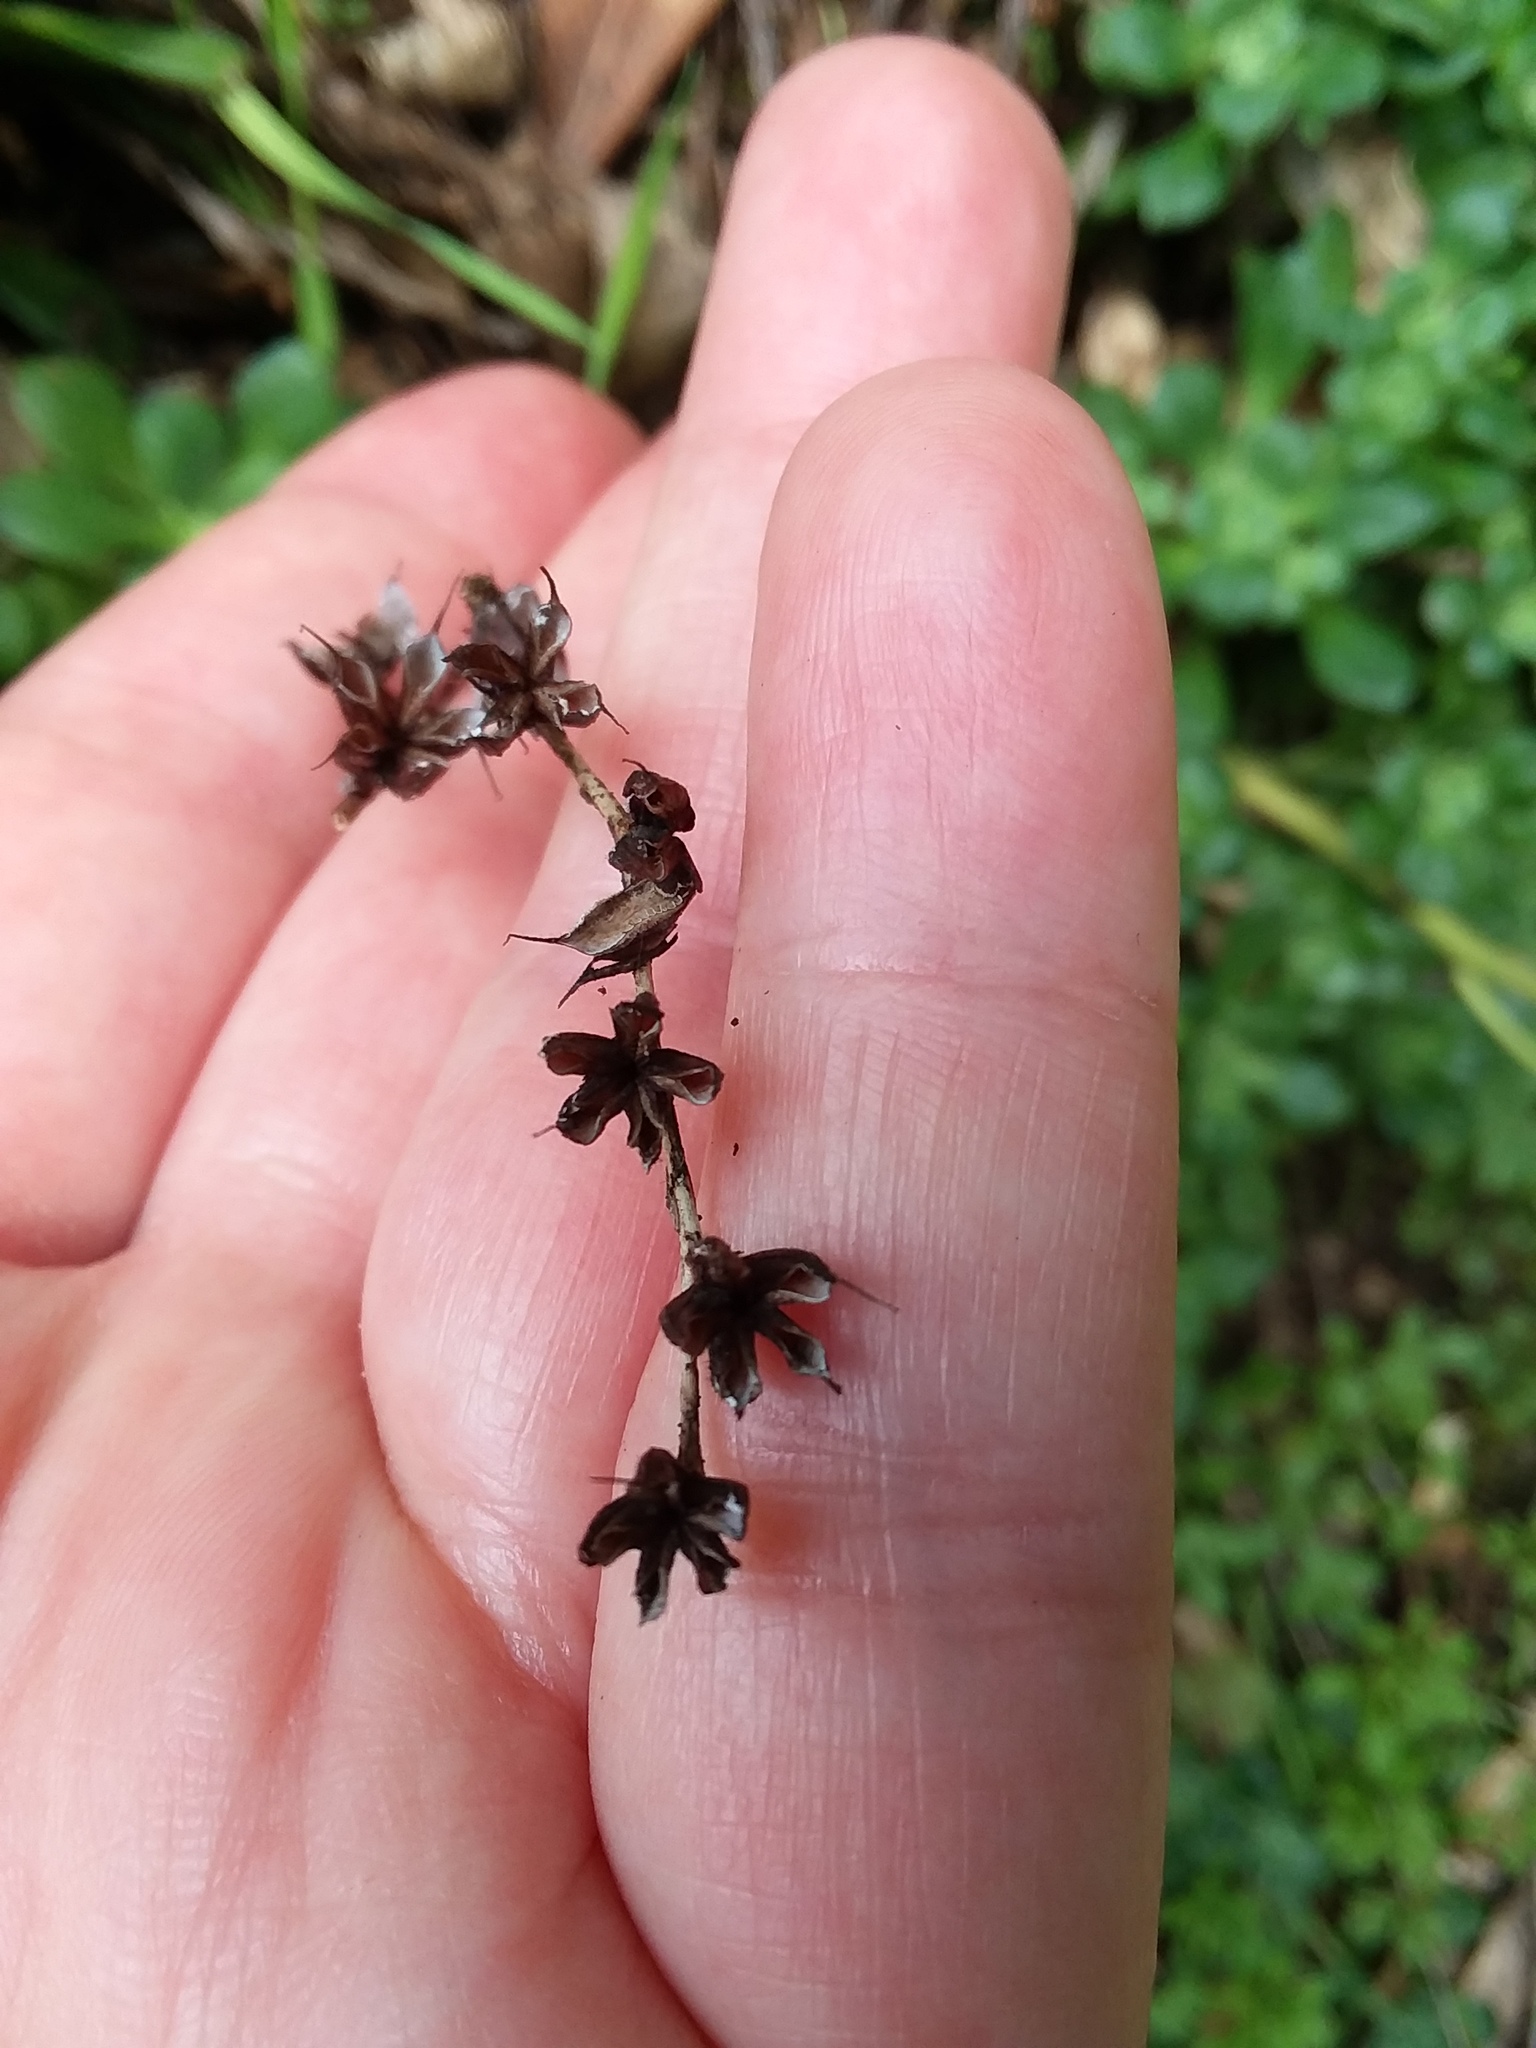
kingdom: Plantae
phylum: Tracheophyta
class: Magnoliopsida
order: Saxifragales
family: Crassulaceae
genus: Sedum
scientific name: Sedum spathulifolium
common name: Colorado stonecrop
